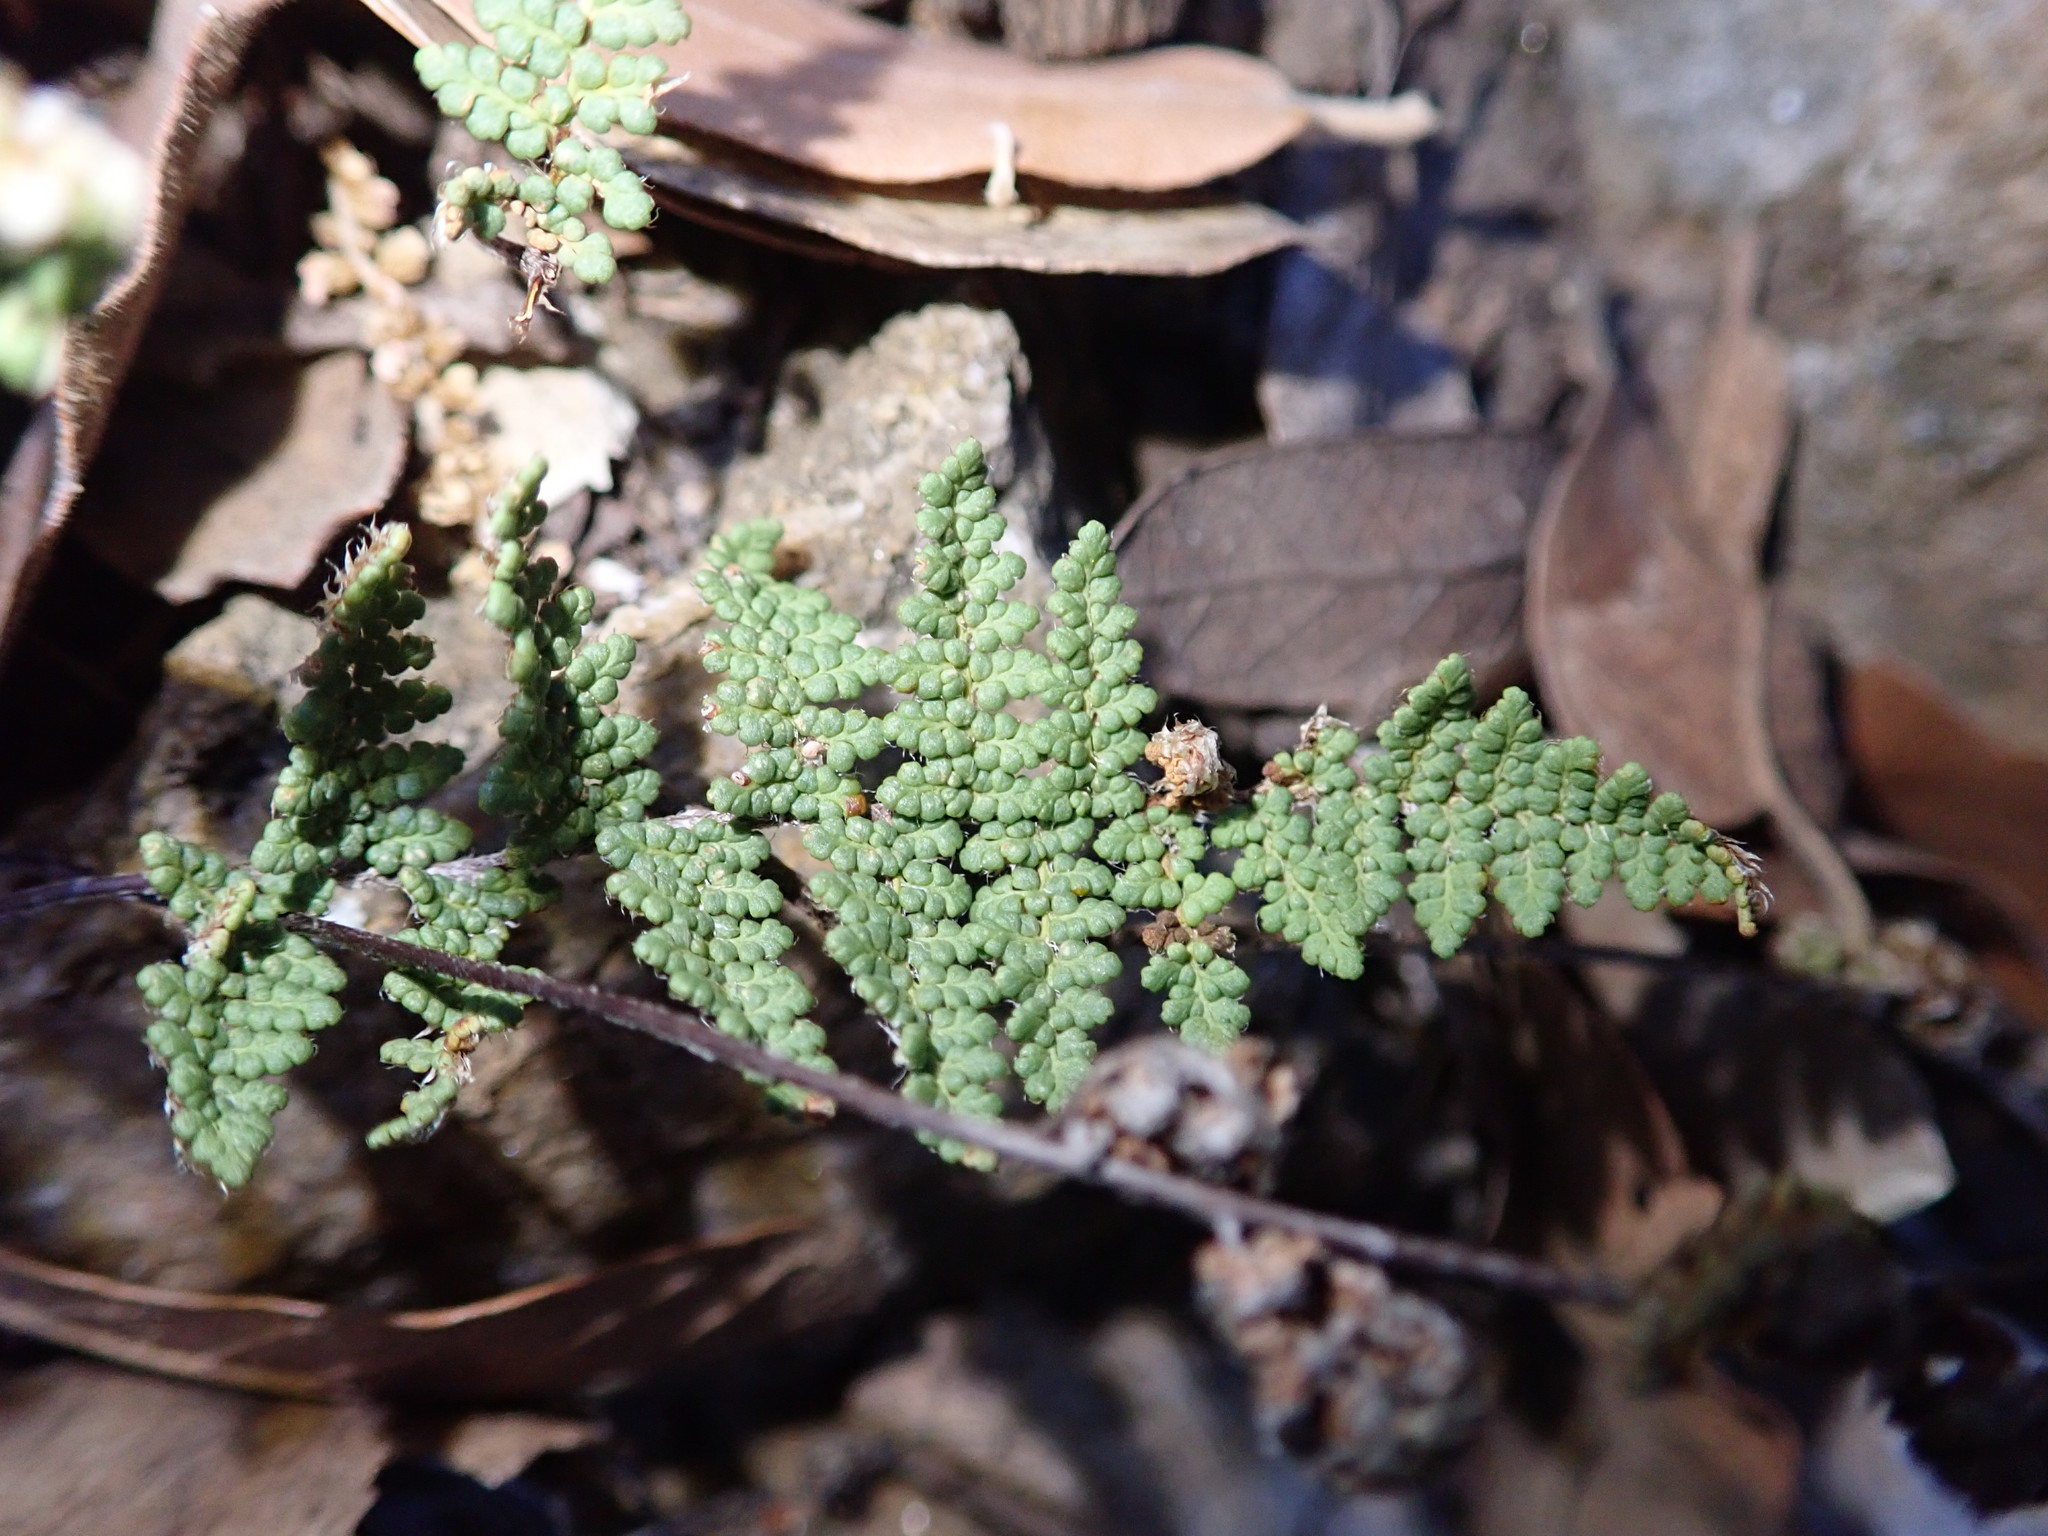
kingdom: Plantae
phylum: Tracheophyta
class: Polypodiopsida
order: Polypodiales
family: Pteridaceae
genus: Myriopteris
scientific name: Myriopteris wootonii
